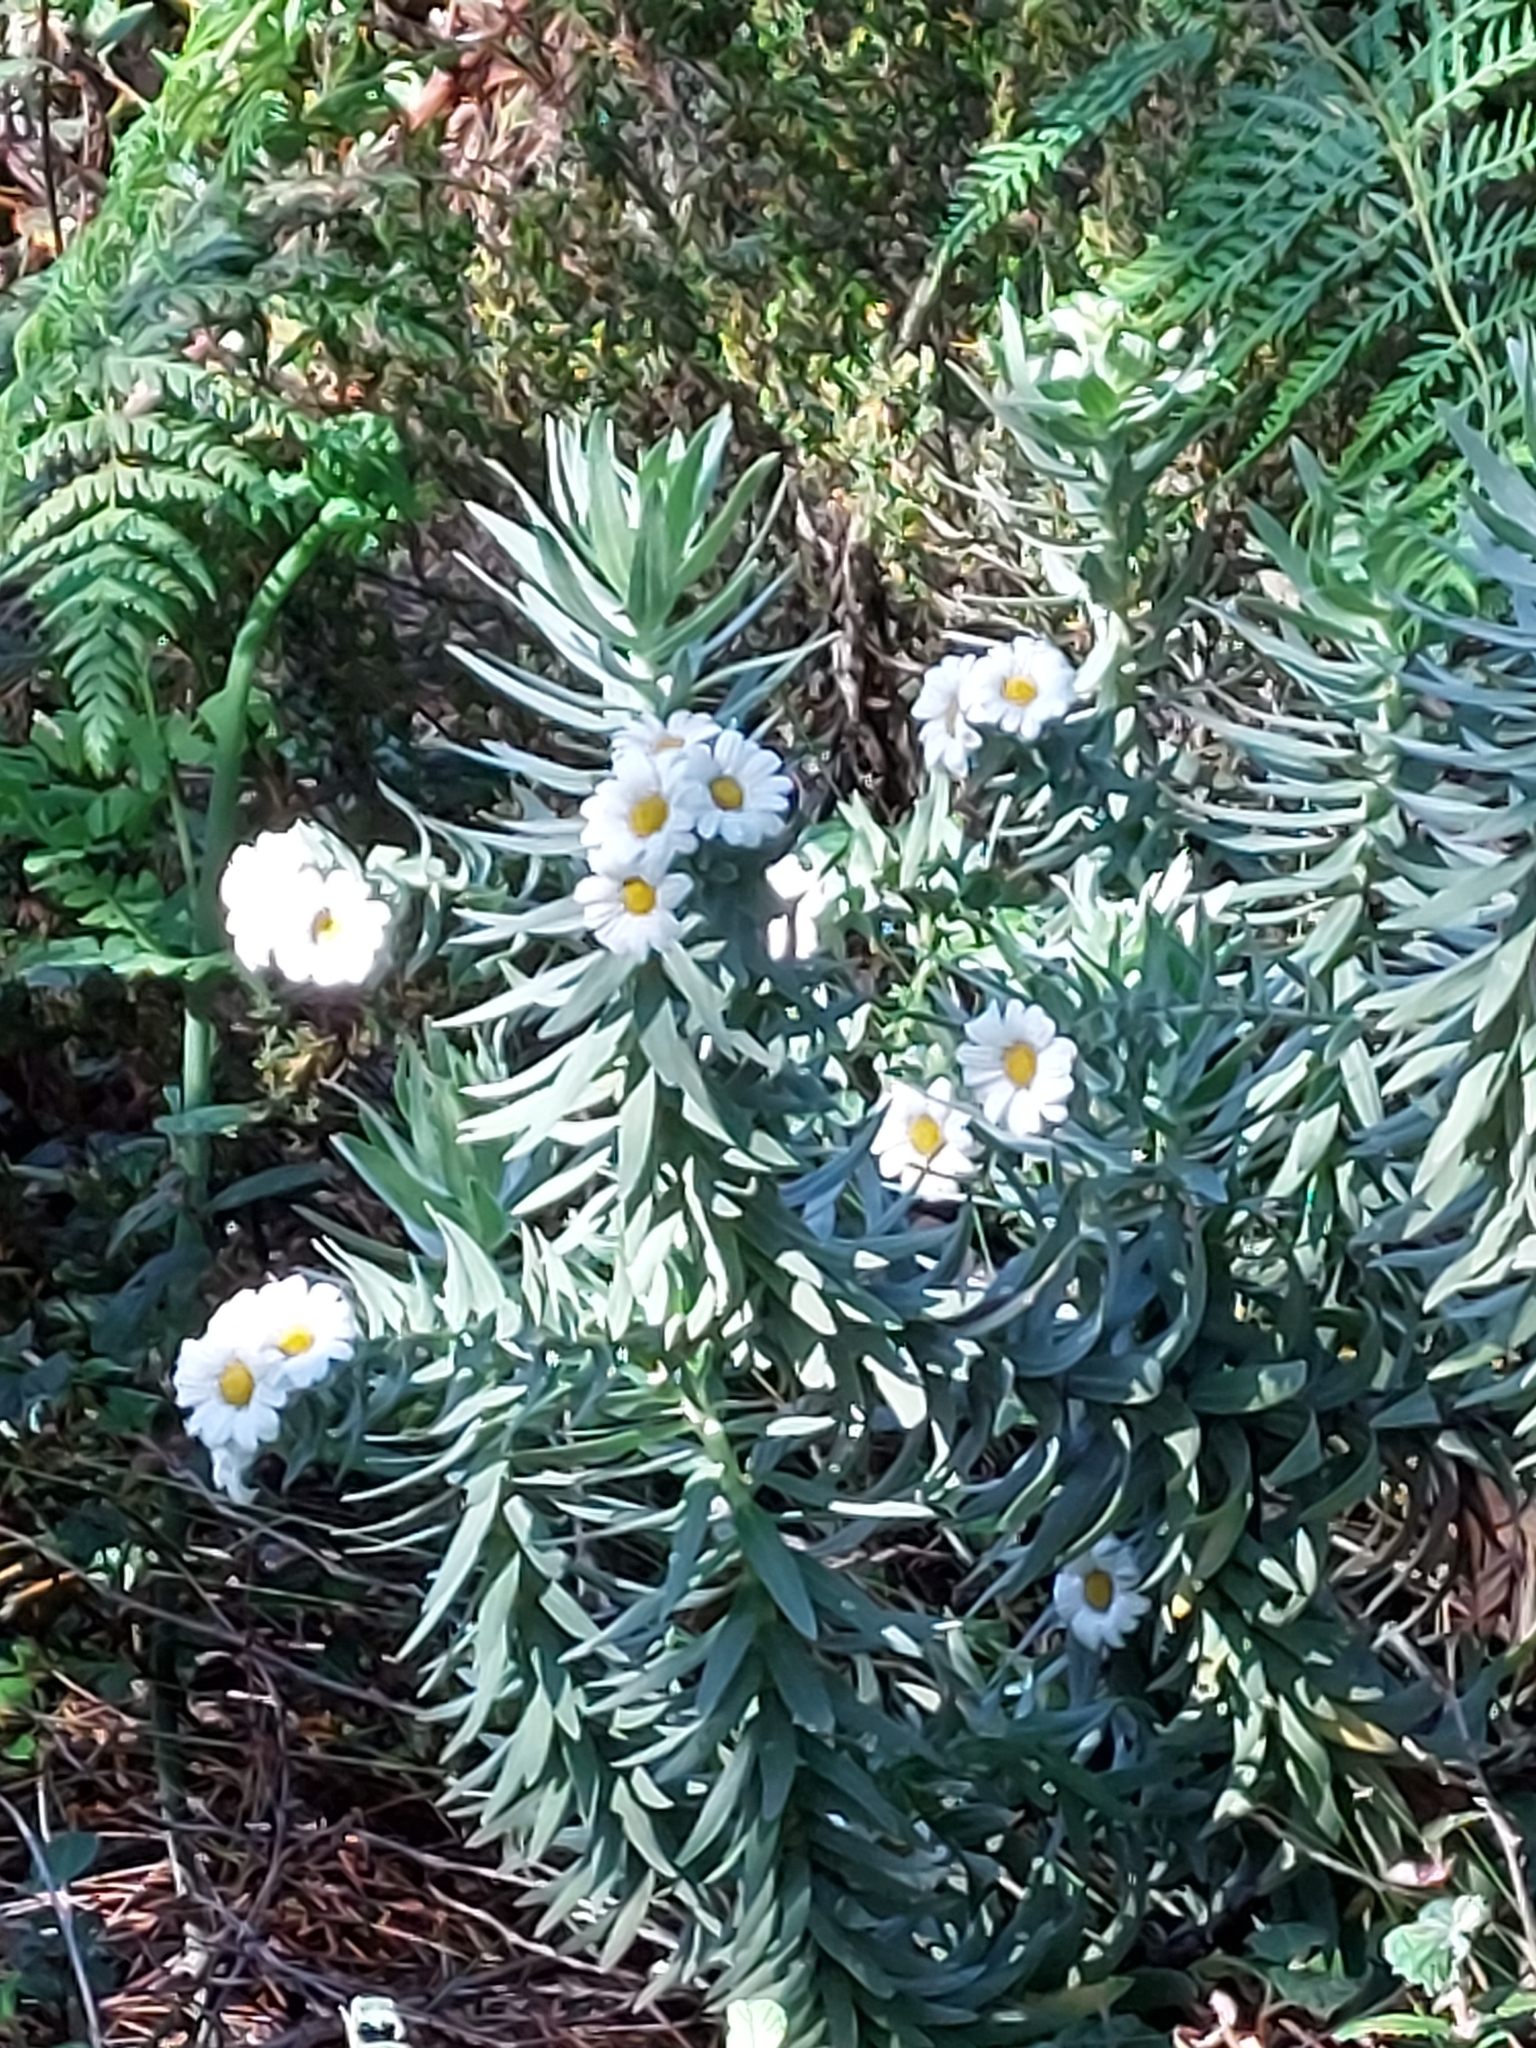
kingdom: Plantae
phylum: Tracheophyta
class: Magnoliopsida
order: Asterales
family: Asteraceae
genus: Osmitopsis
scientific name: Osmitopsis asteriscoides
